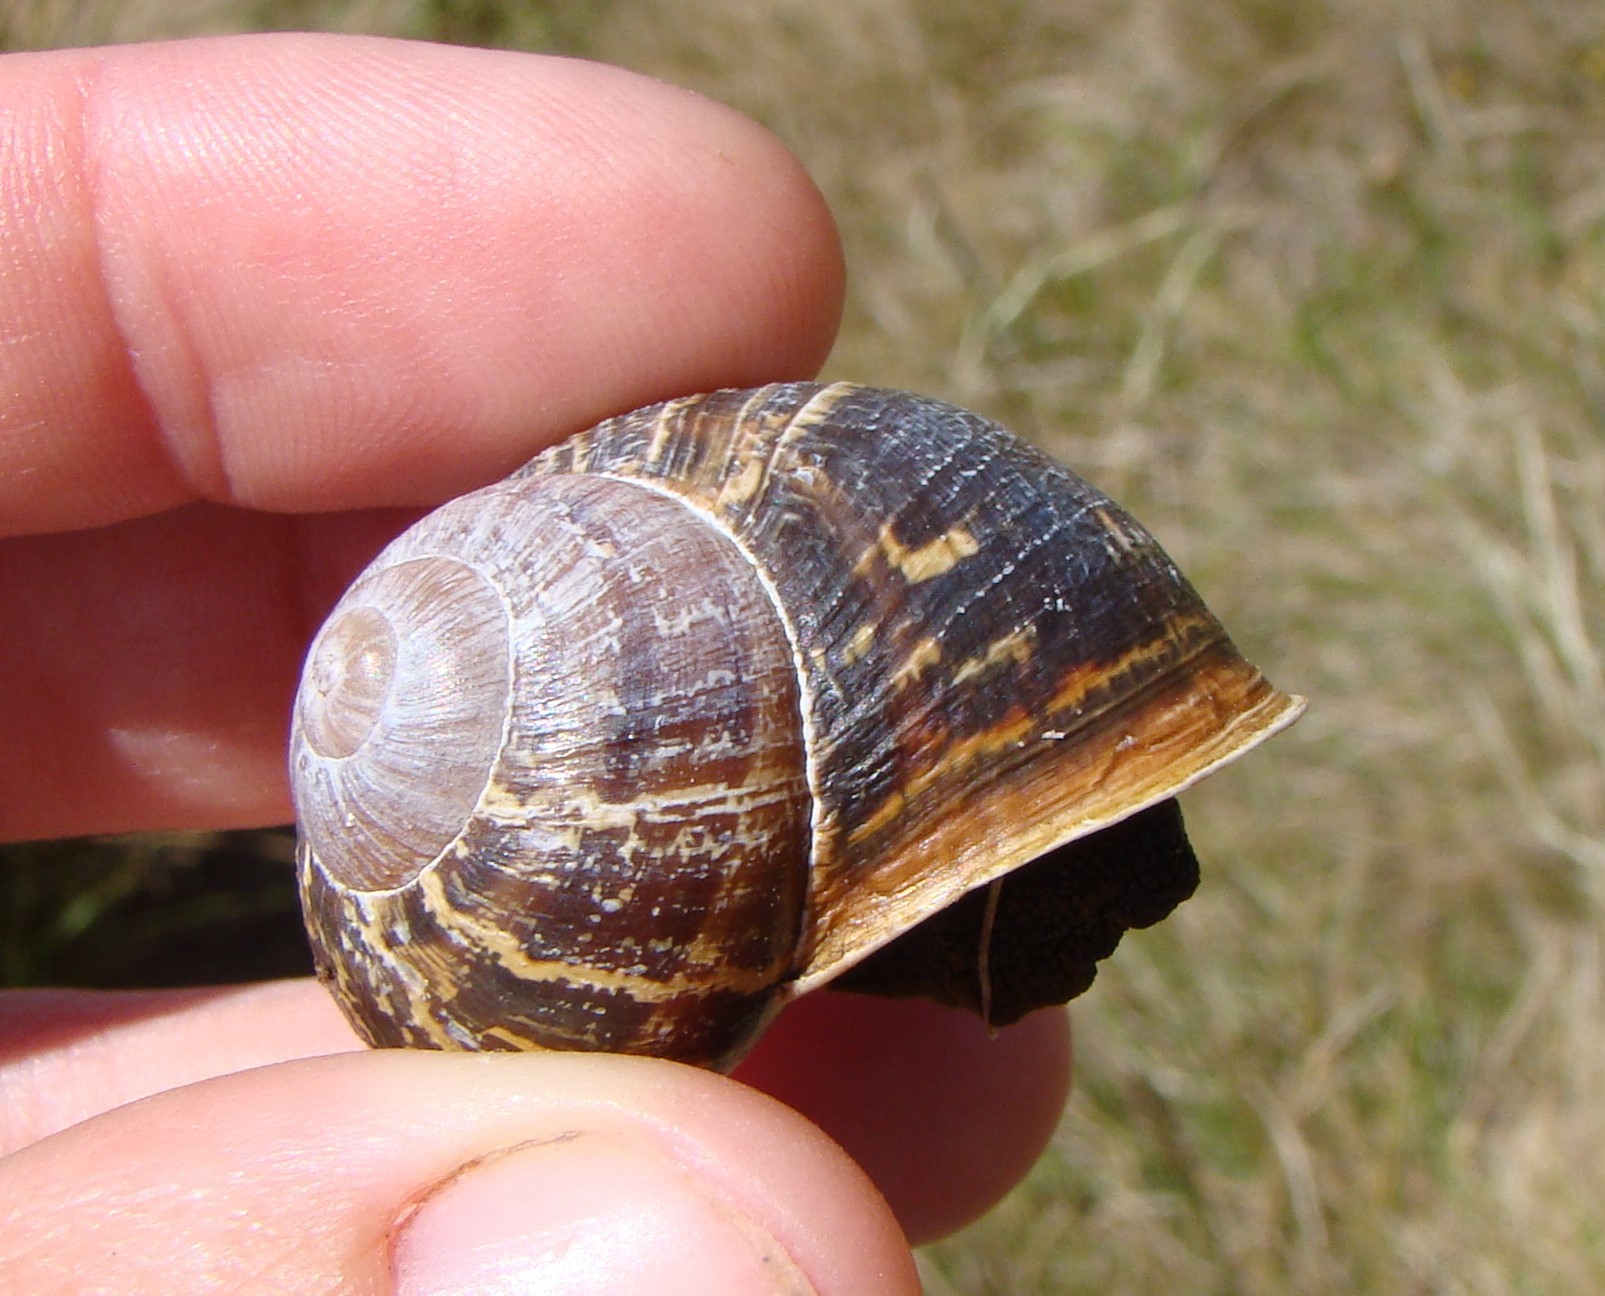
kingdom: Animalia
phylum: Mollusca
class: Gastropoda
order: Stylommatophora
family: Helicidae
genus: Cornu
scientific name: Cornu aspersum
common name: Brown garden snail
